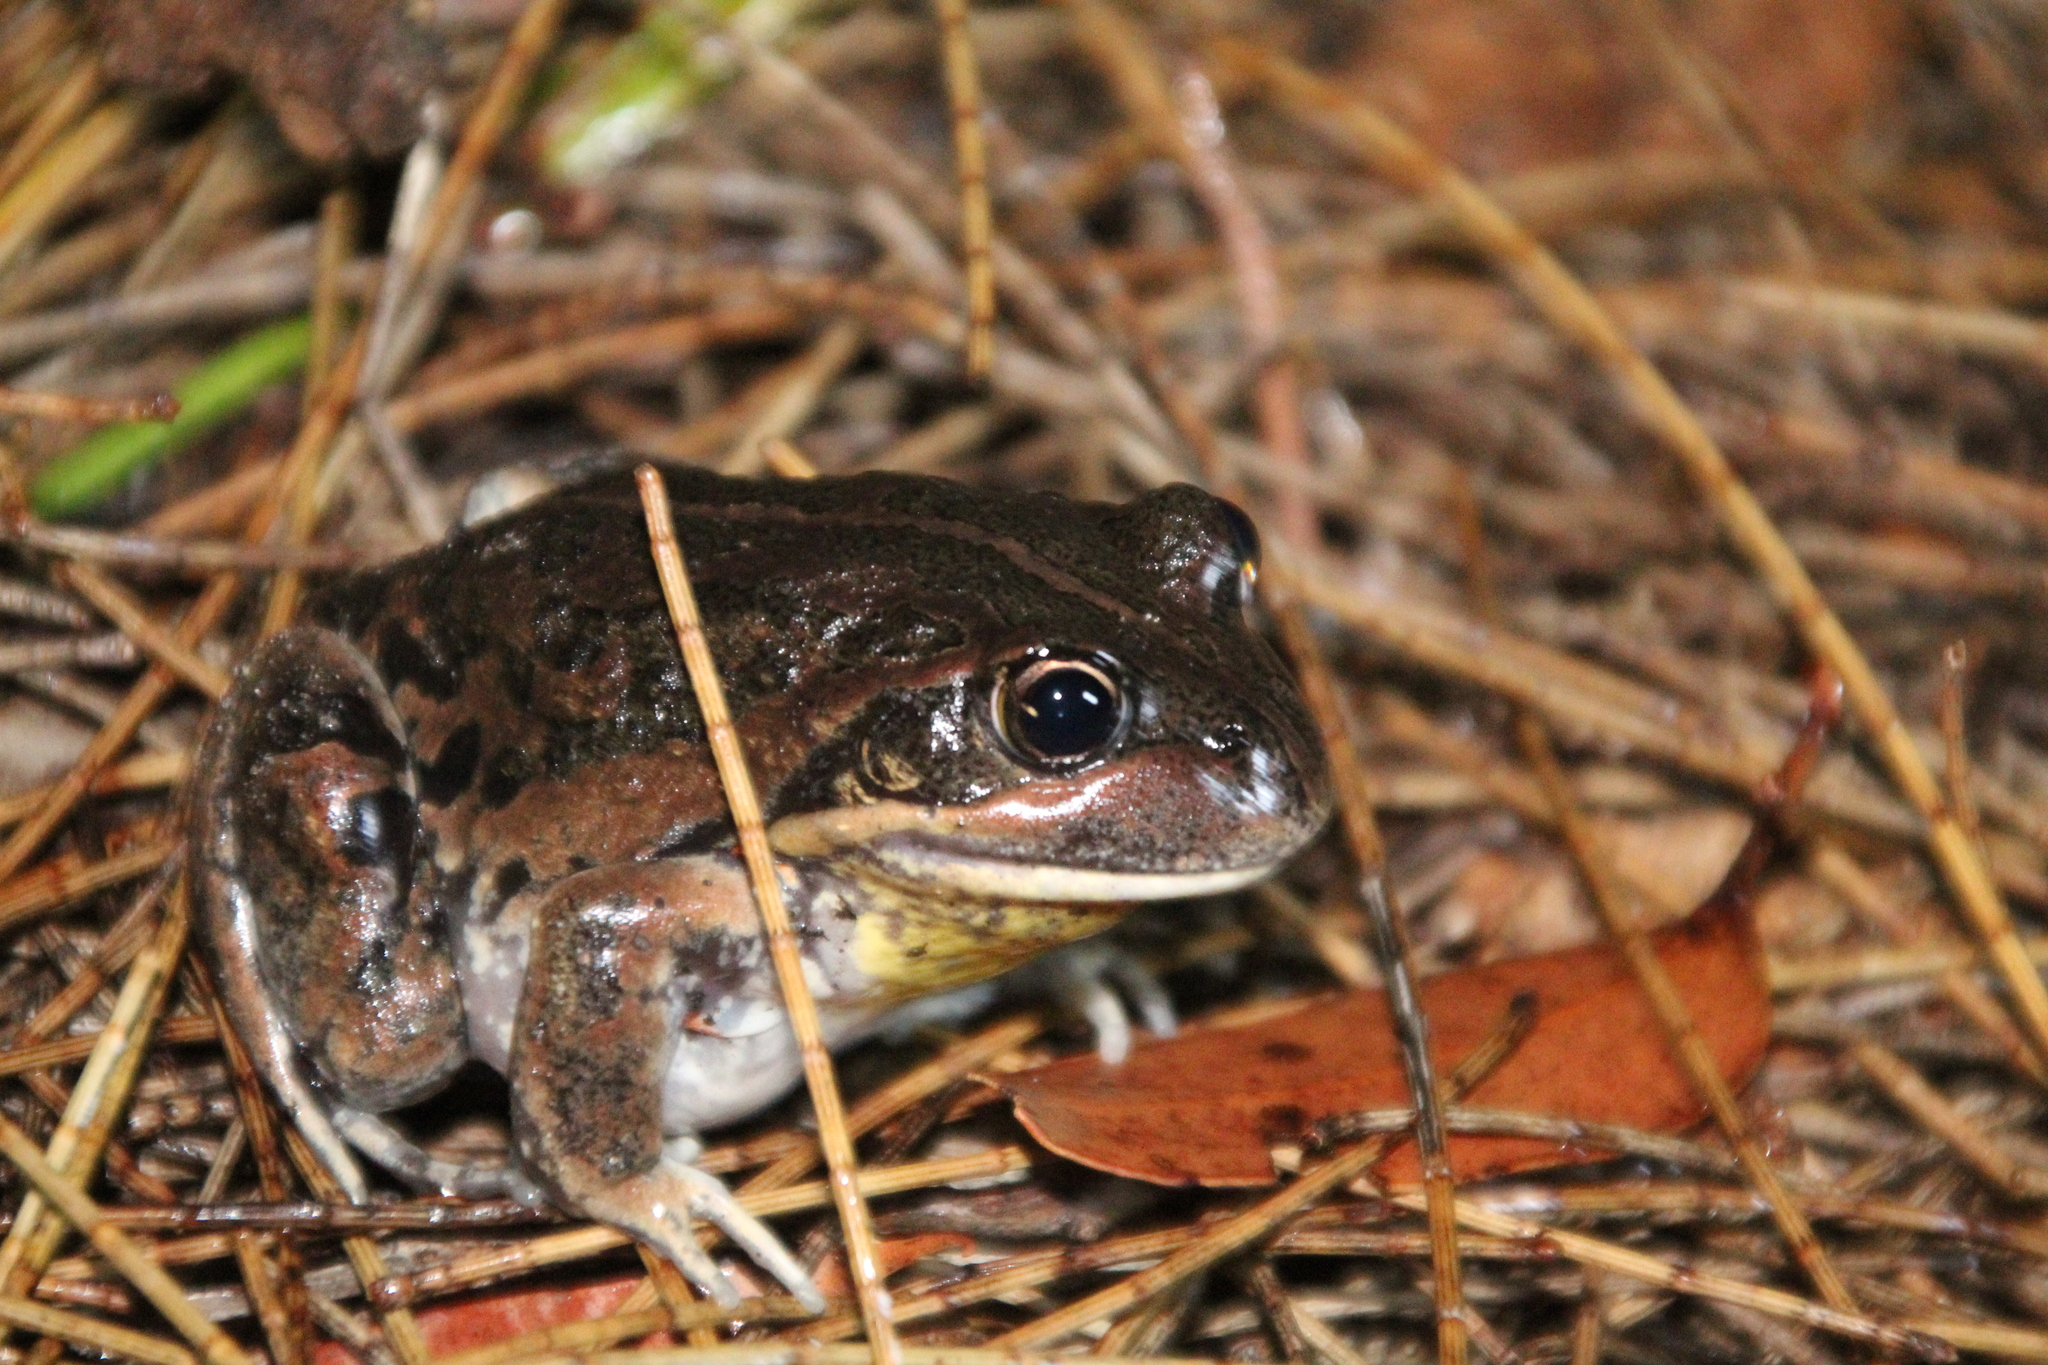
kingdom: Animalia
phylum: Chordata
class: Amphibia
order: Anura
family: Limnodynastidae
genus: Limnodynastes
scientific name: Limnodynastes dorsalis
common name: Banjo frog
